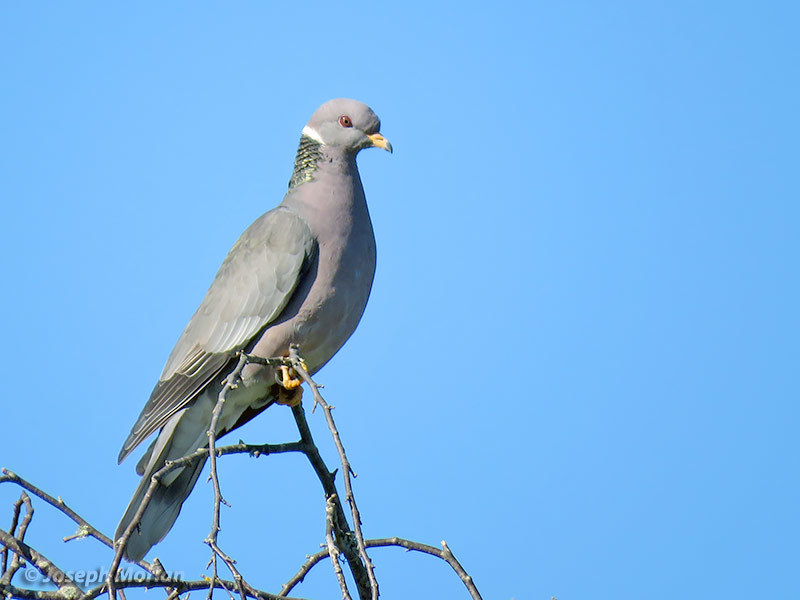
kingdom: Animalia
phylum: Chordata
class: Aves
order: Columbiformes
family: Columbidae
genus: Patagioenas
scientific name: Patagioenas fasciata
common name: Band-tailed pigeon
